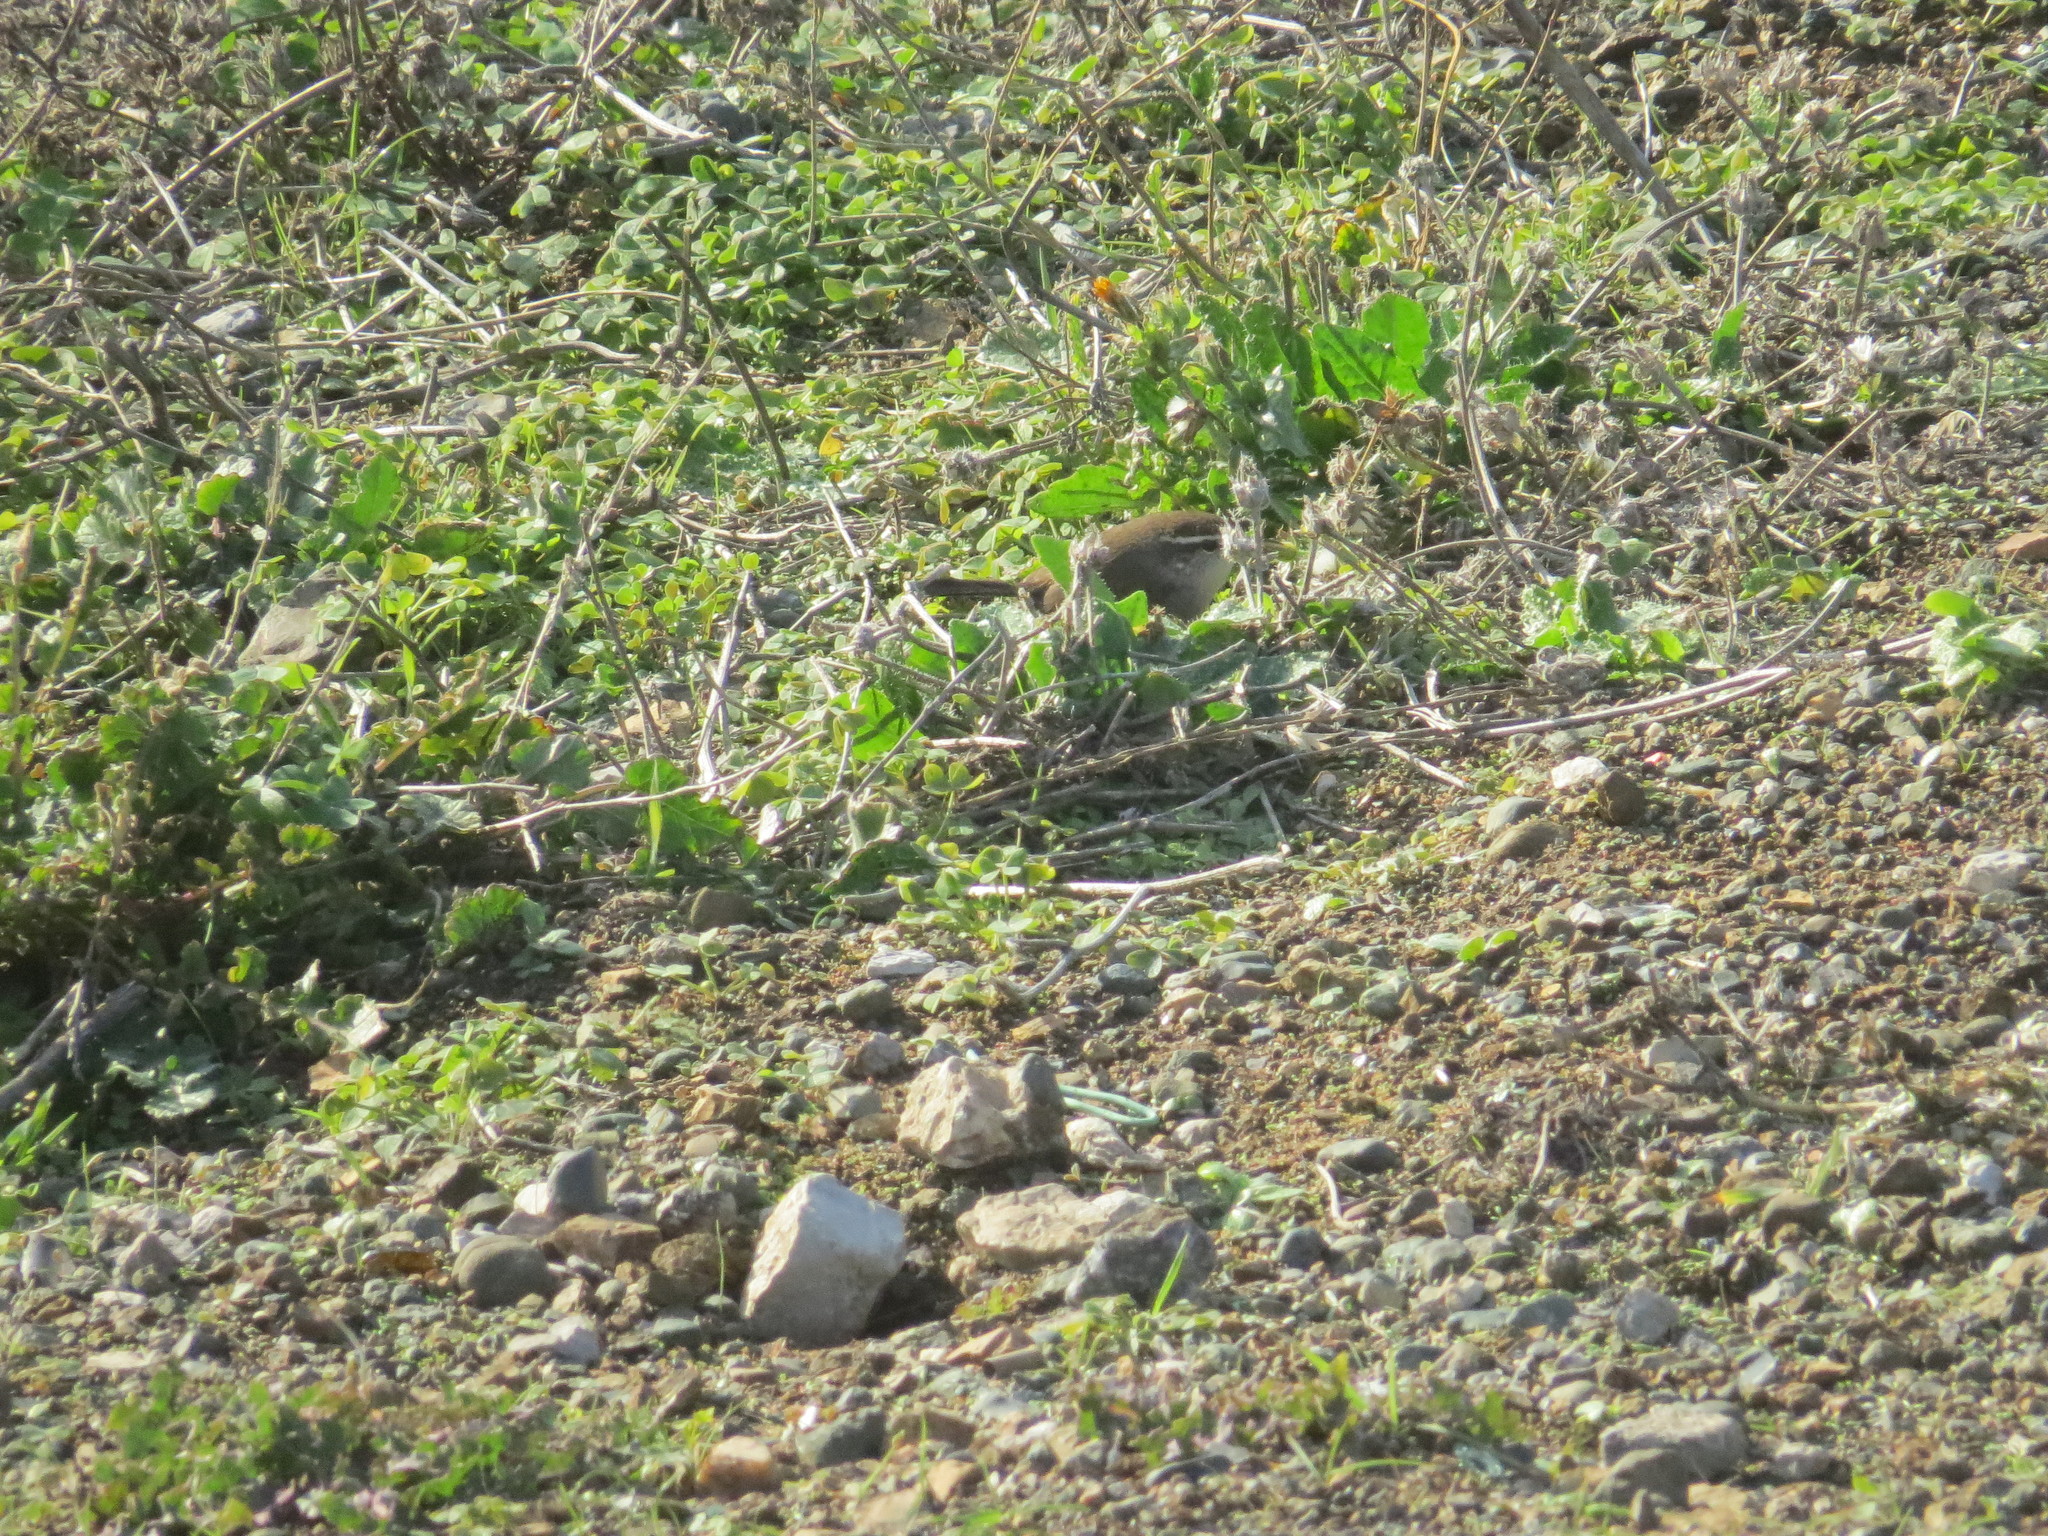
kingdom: Animalia
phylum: Chordata
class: Aves
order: Passeriformes
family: Troglodytidae
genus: Thryomanes
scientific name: Thryomanes bewickii
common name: Bewick's wren
